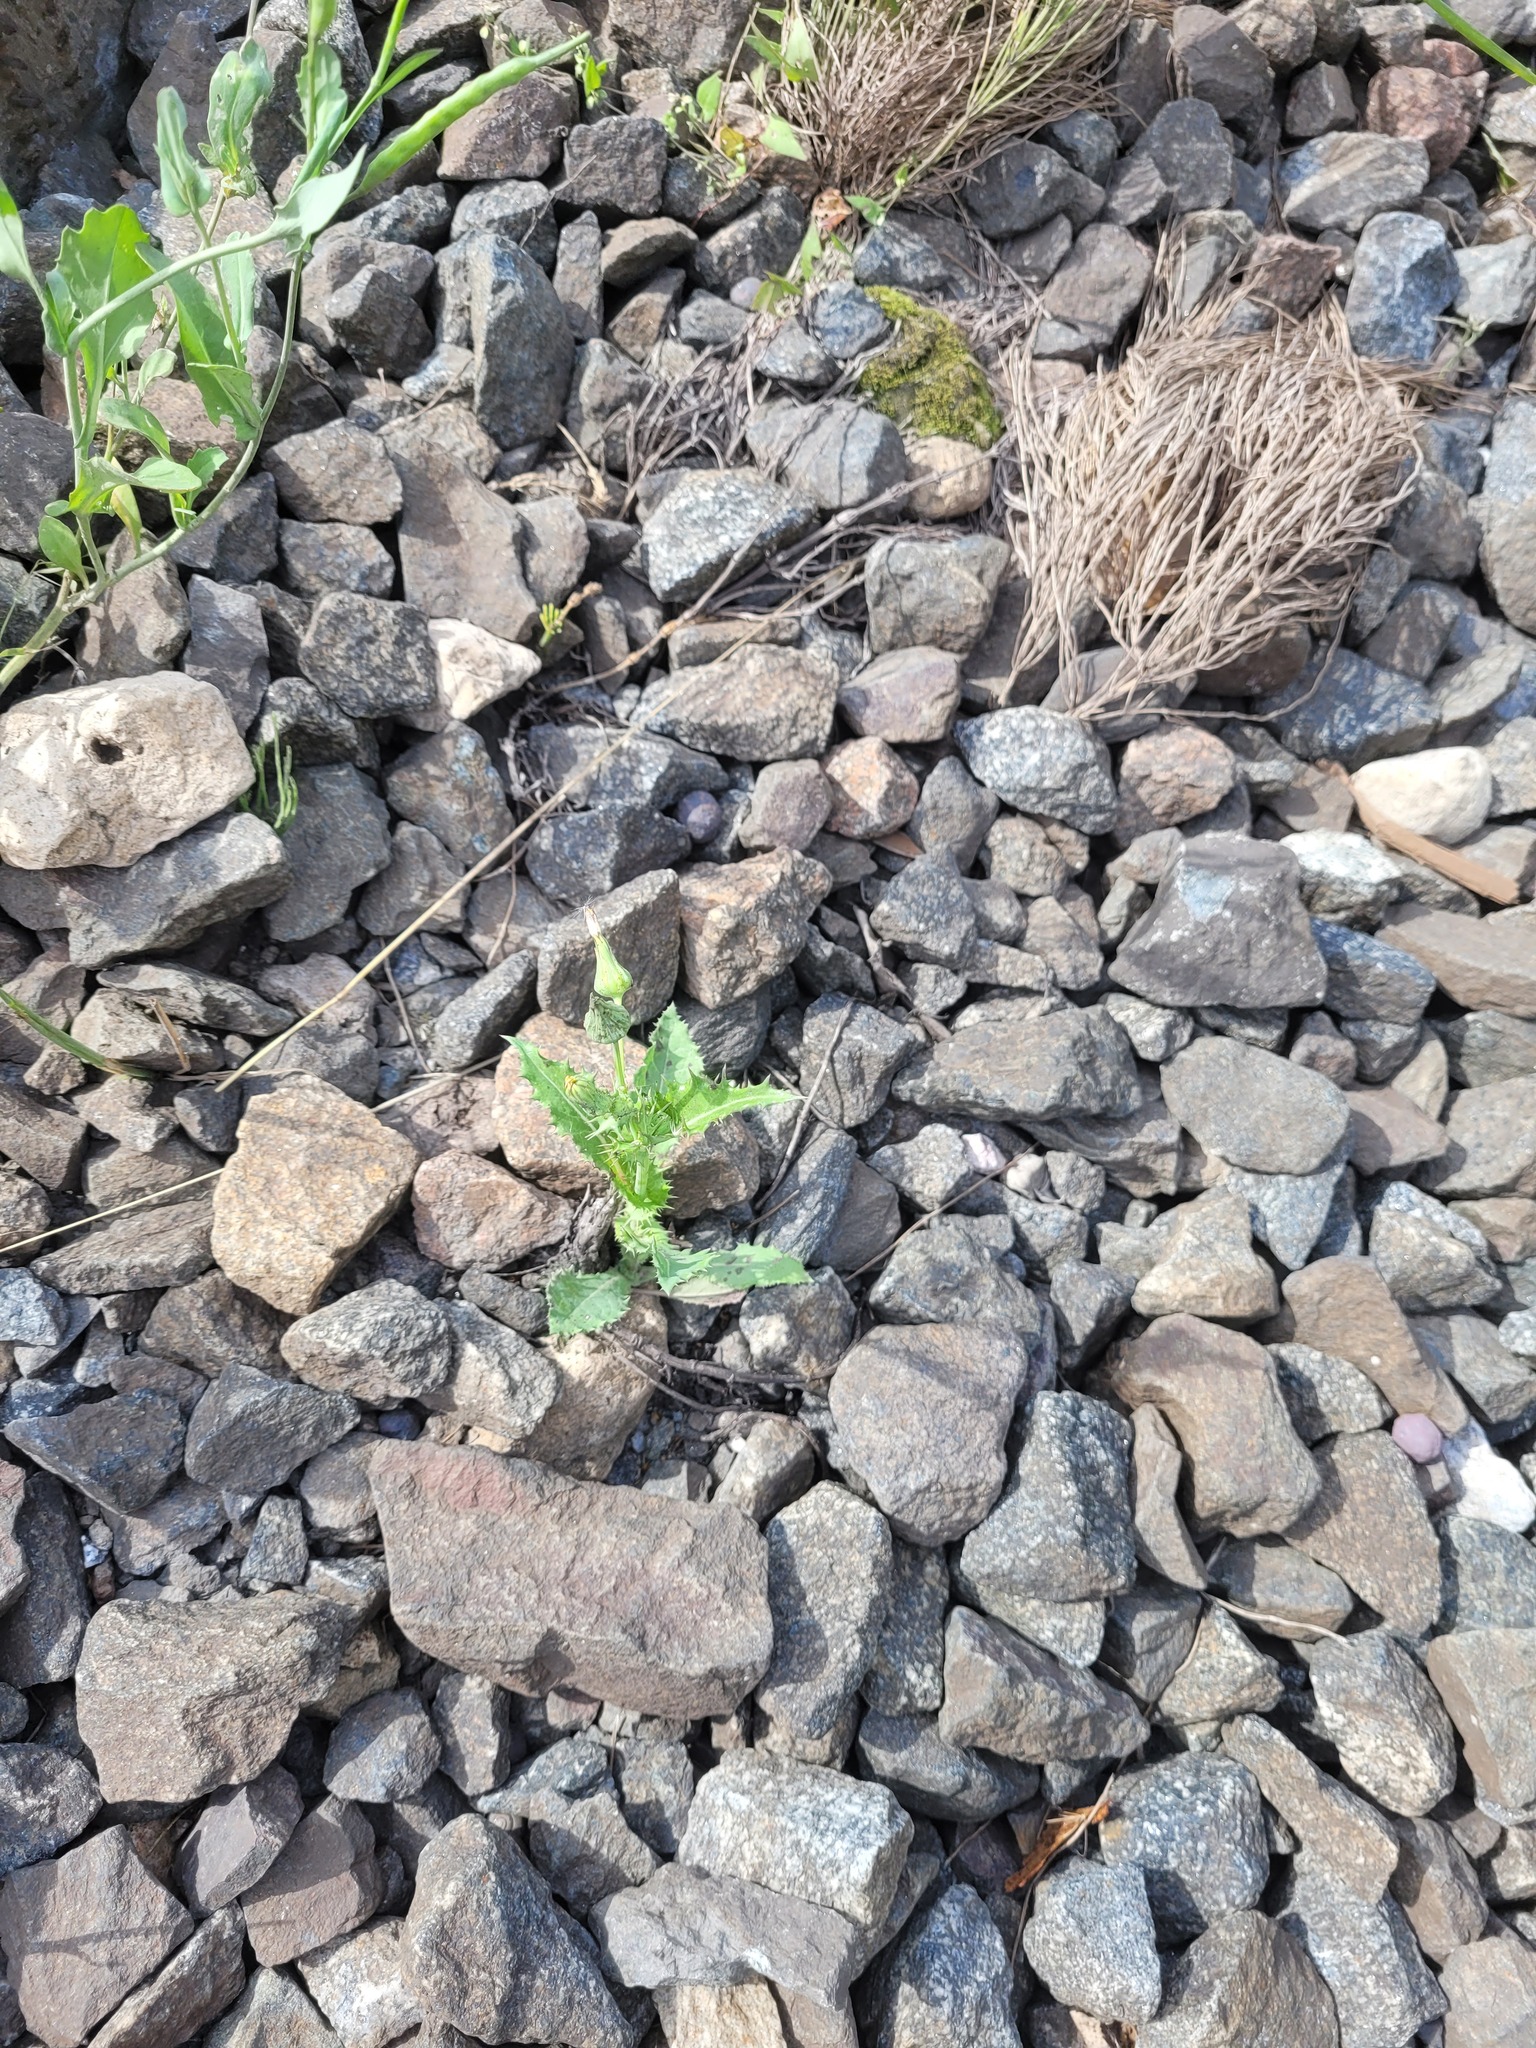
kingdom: Plantae
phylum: Tracheophyta
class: Magnoliopsida
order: Asterales
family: Asteraceae
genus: Sonchus
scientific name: Sonchus asper
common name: Prickly sow-thistle
